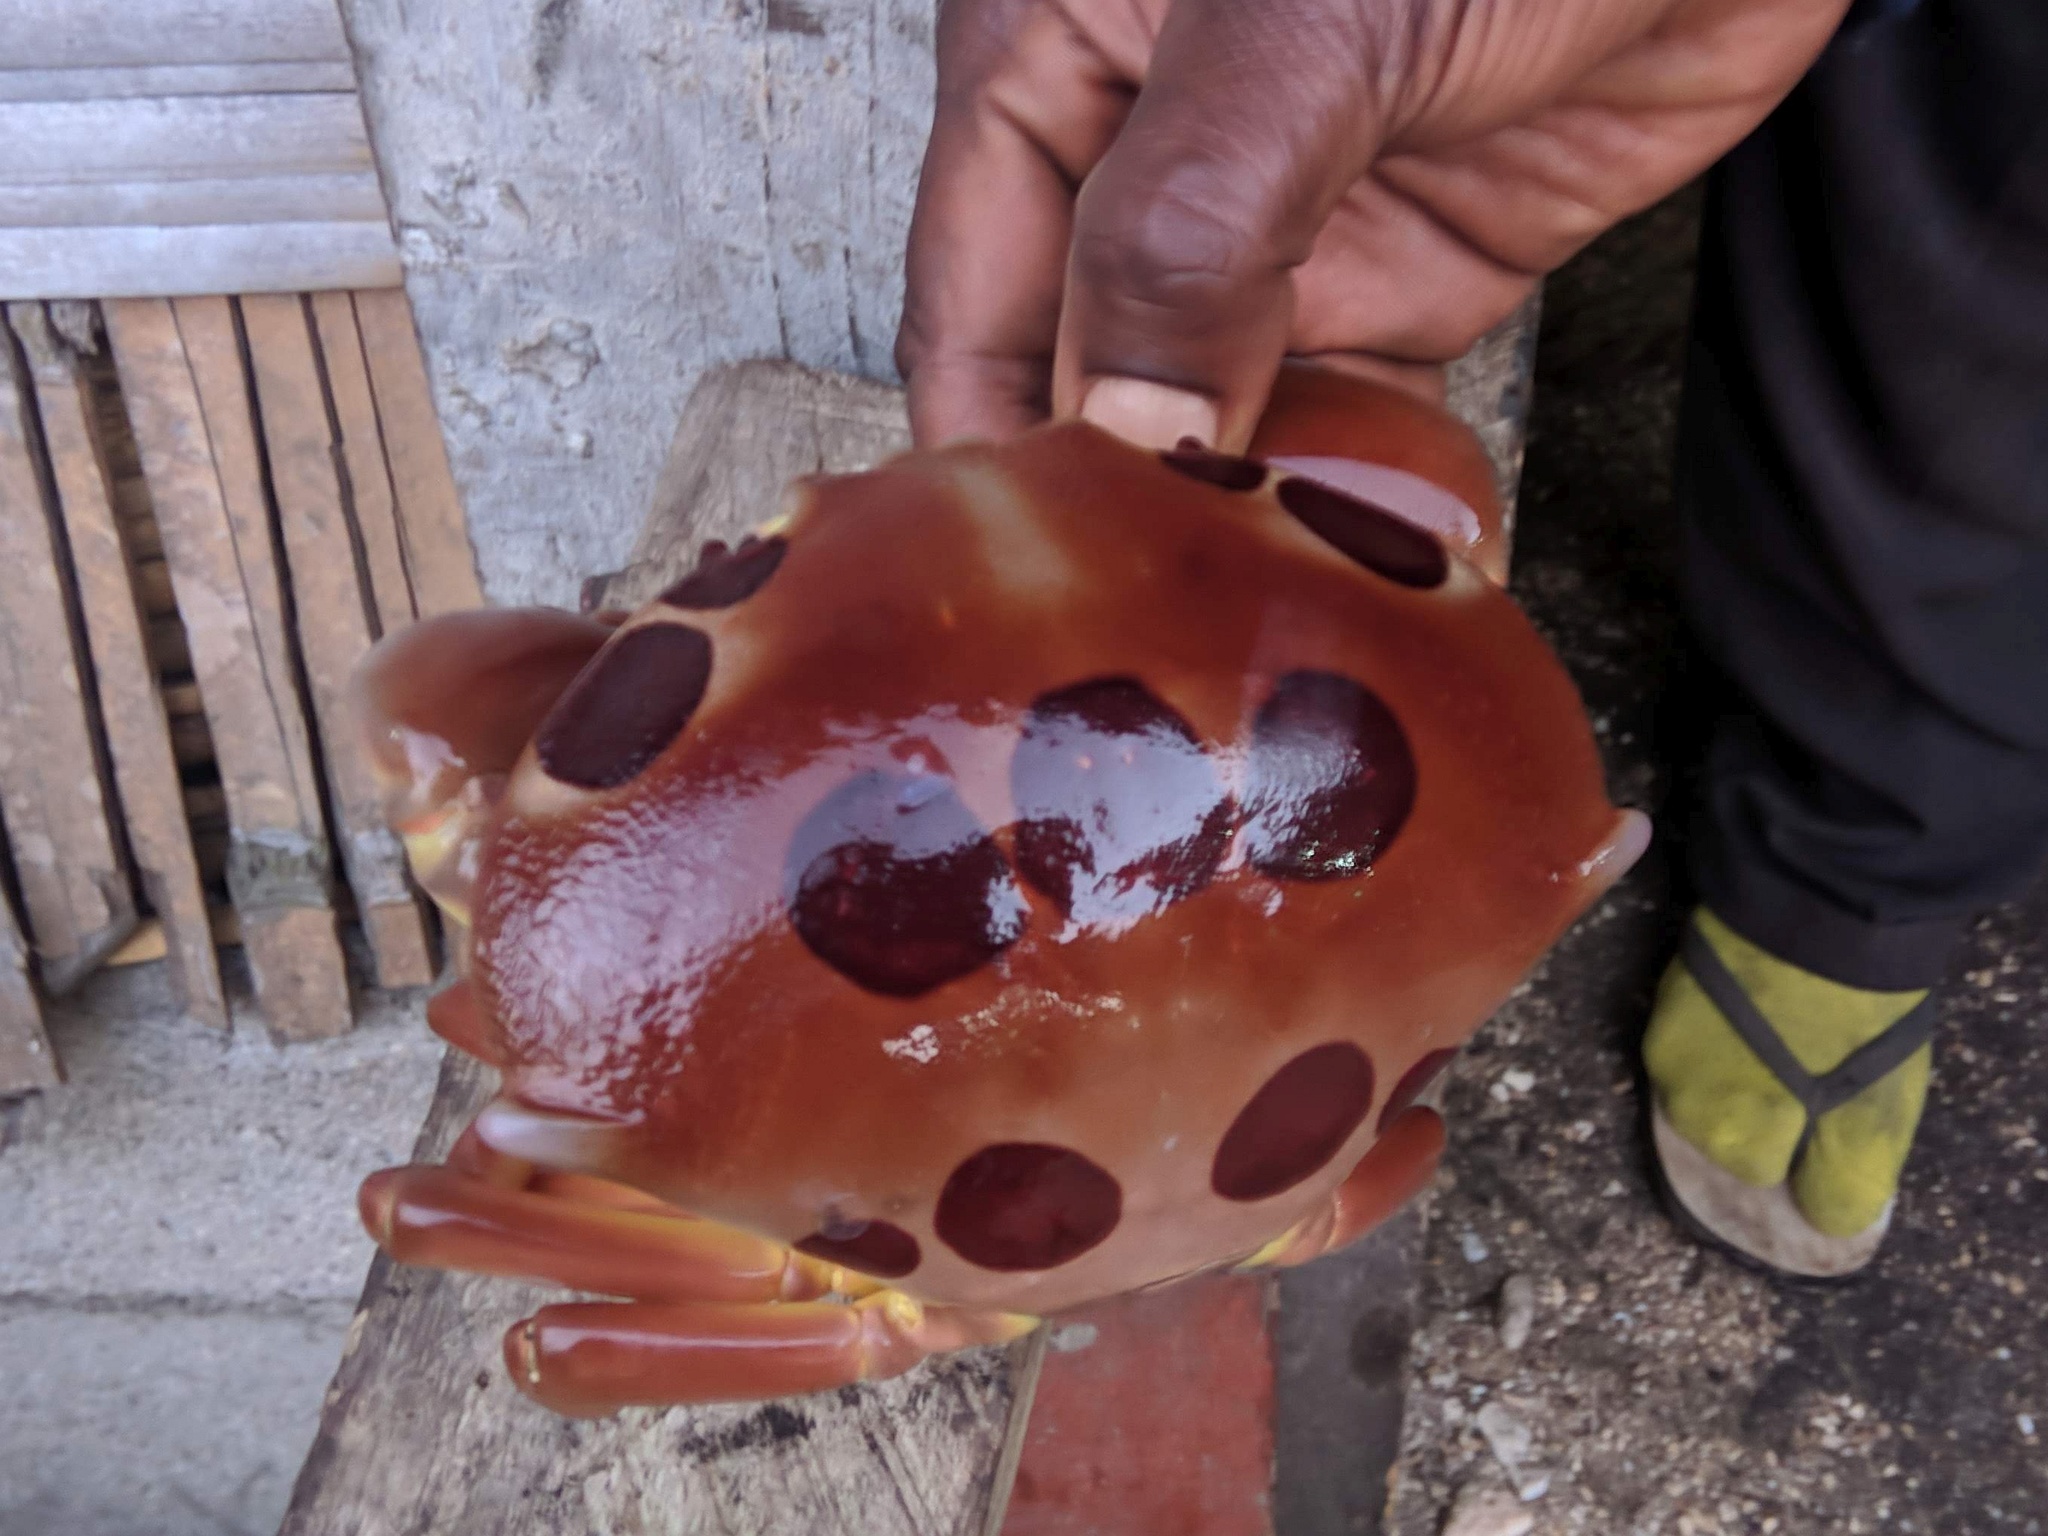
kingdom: Animalia
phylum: Arthropoda
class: Malacostraca
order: Decapoda
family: Carpiliidae
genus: Carpilius
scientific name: Carpilius maculatus
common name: Spotted reef crab
